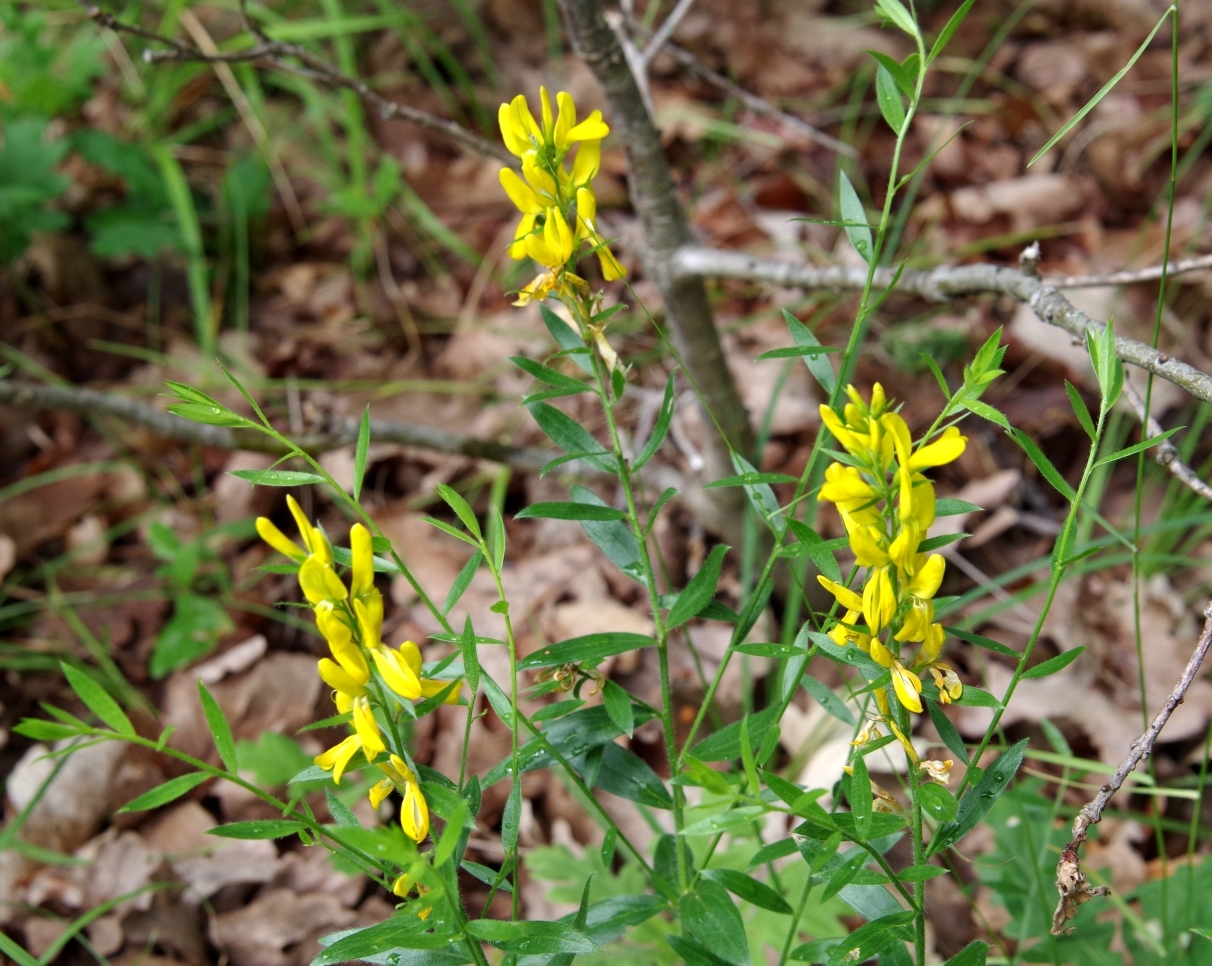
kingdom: Plantae
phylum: Tracheophyta
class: Magnoliopsida
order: Fabales
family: Fabaceae
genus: Genista
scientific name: Genista tinctoria
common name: Dyer's greenweed
